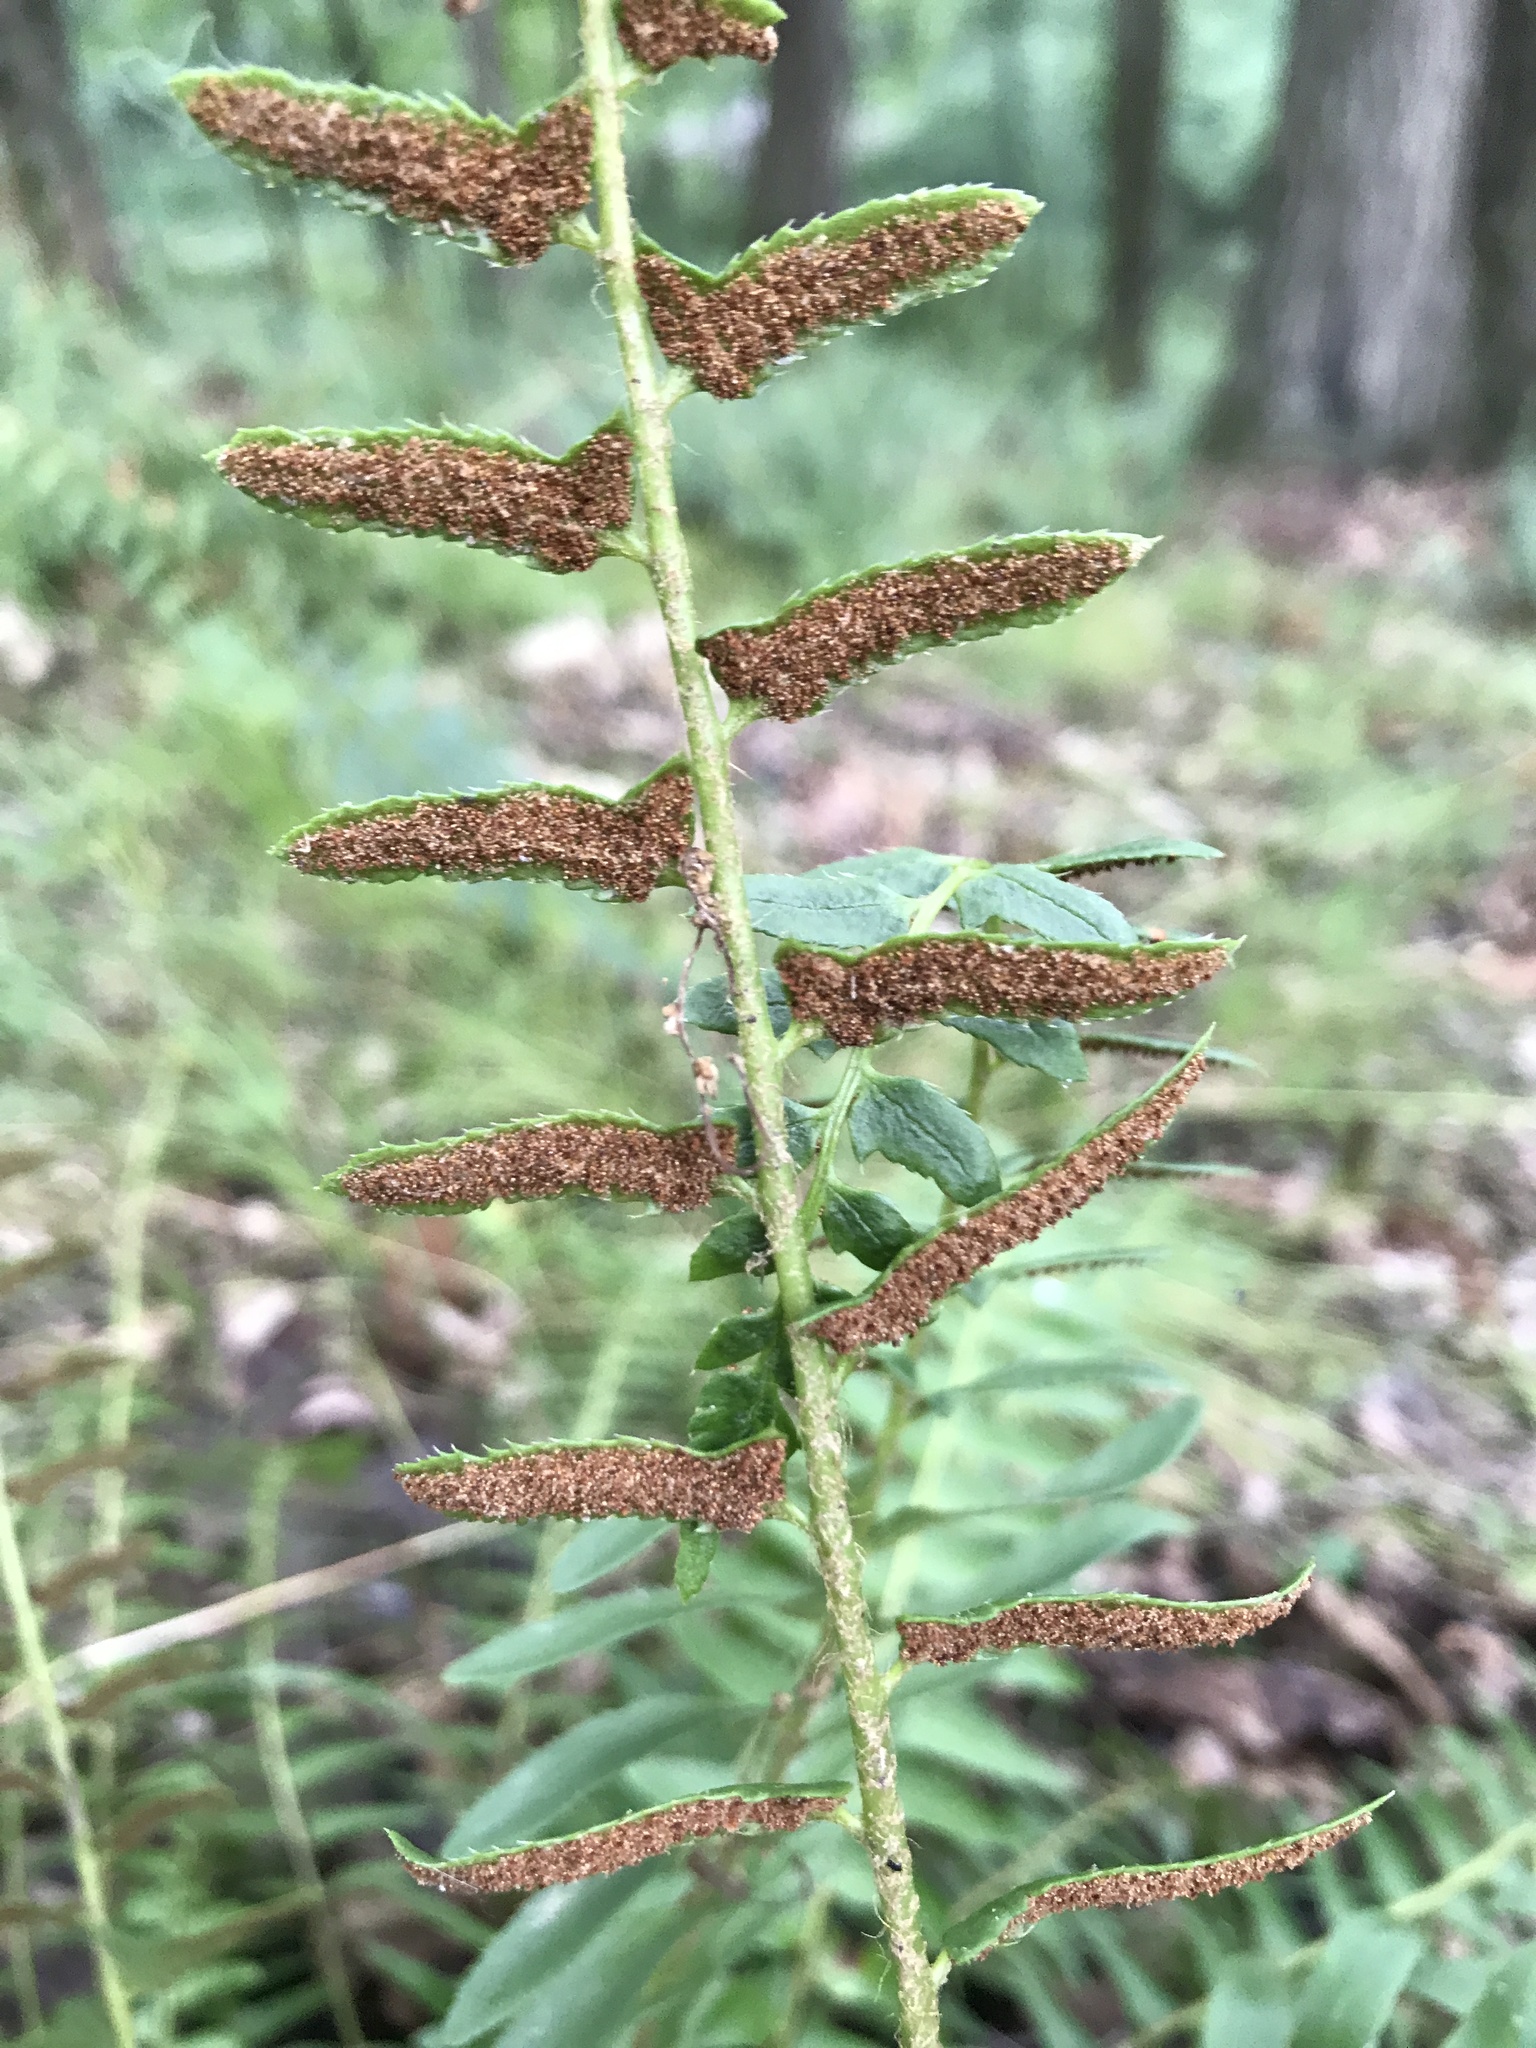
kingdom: Plantae
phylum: Tracheophyta
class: Polypodiopsida
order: Polypodiales
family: Dryopteridaceae
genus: Polystichum
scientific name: Polystichum acrostichoides
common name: Christmas fern
